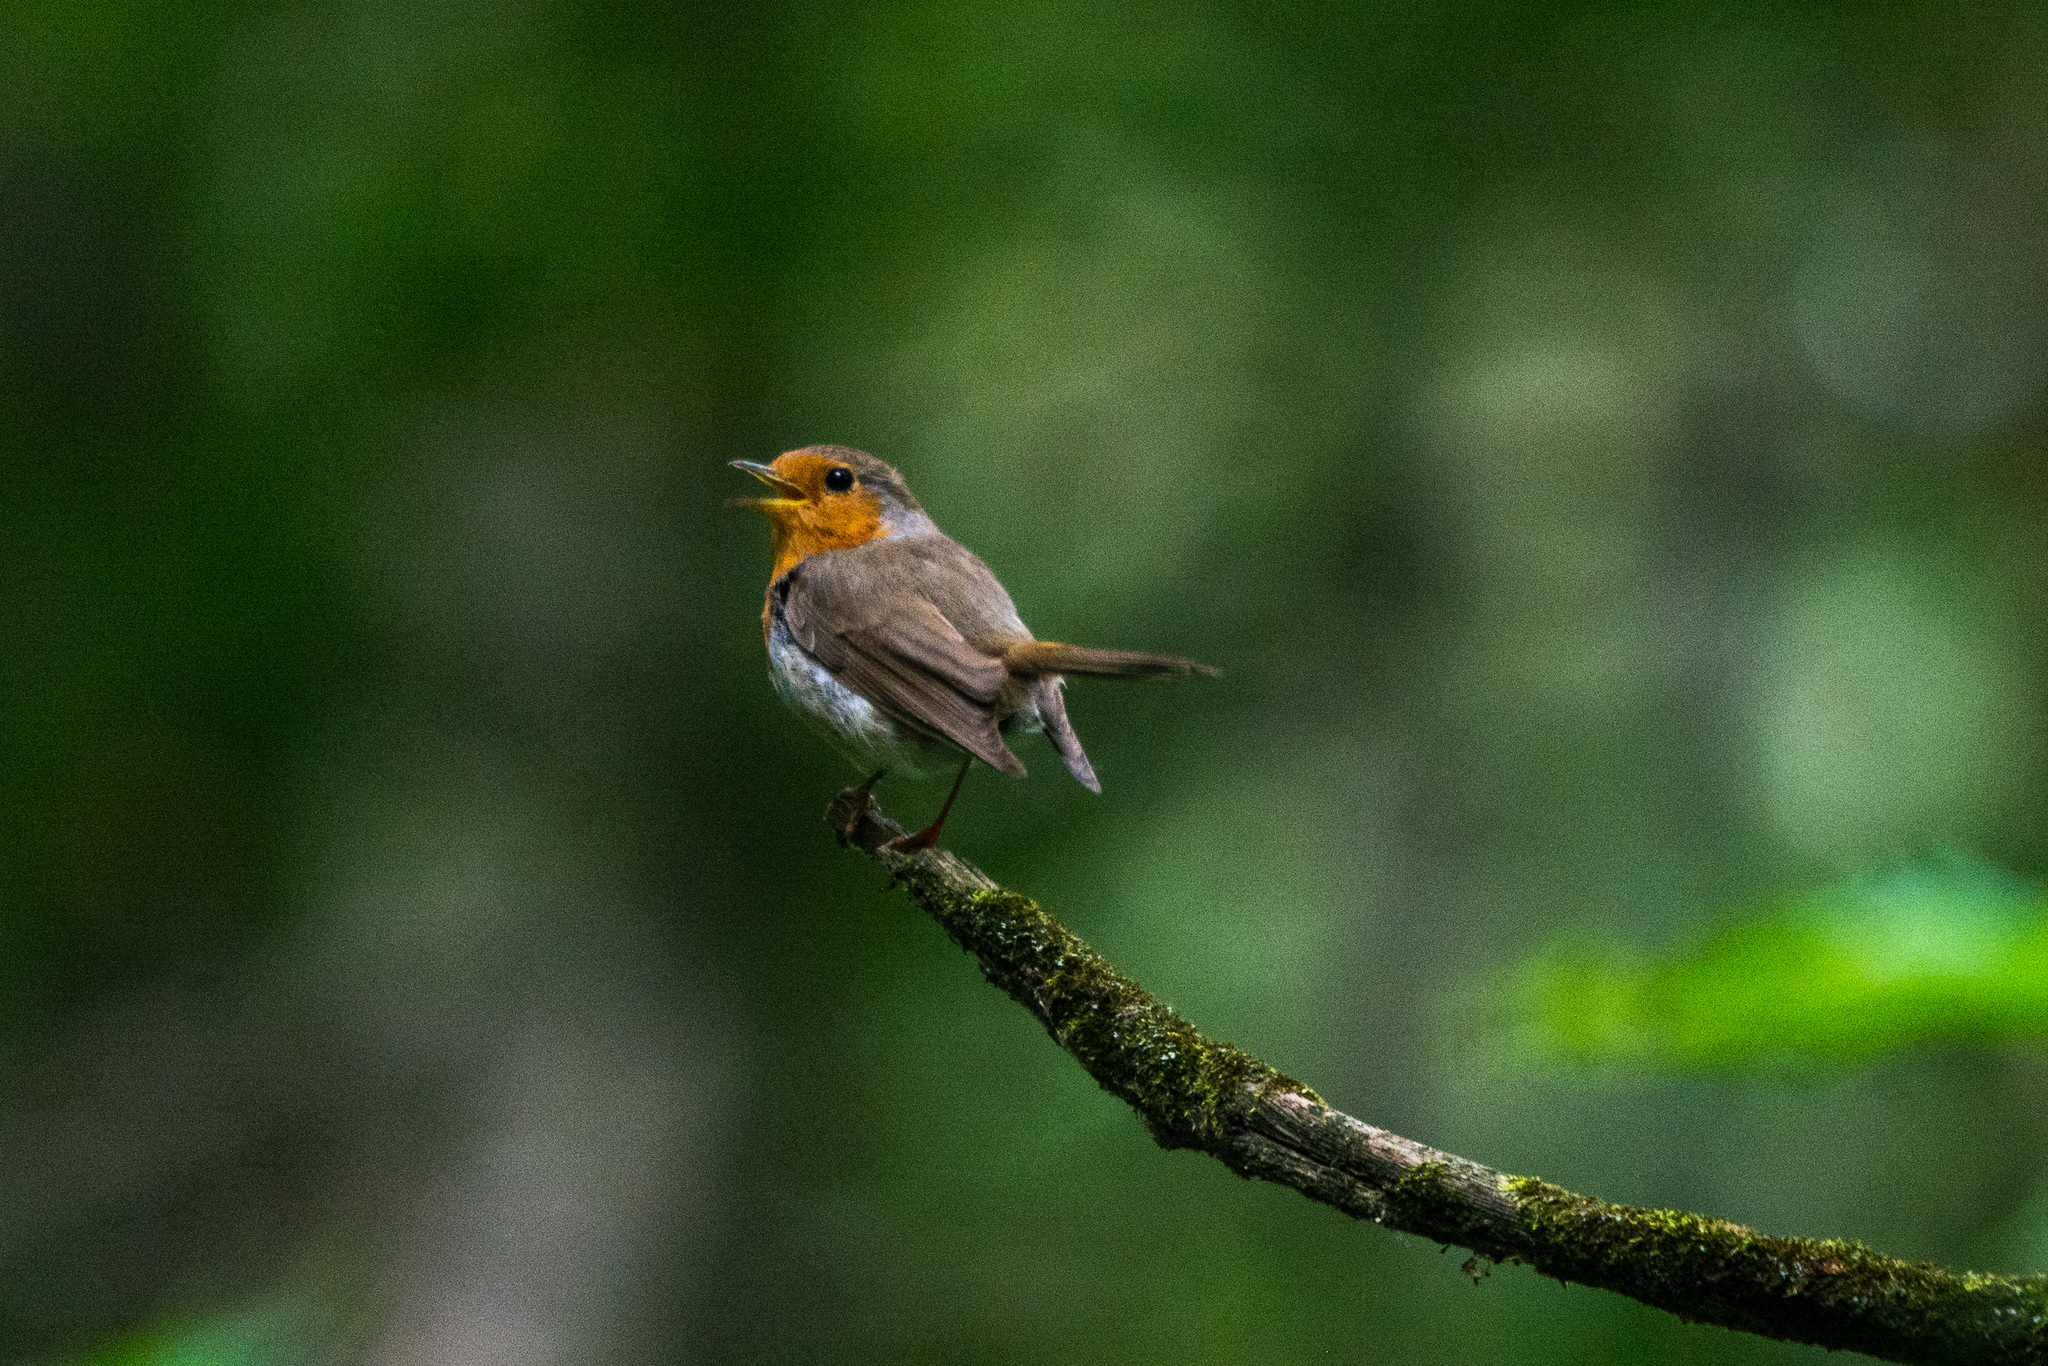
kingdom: Animalia
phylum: Chordata
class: Aves
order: Passeriformes
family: Muscicapidae
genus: Erithacus
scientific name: Erithacus rubecula
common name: European robin
